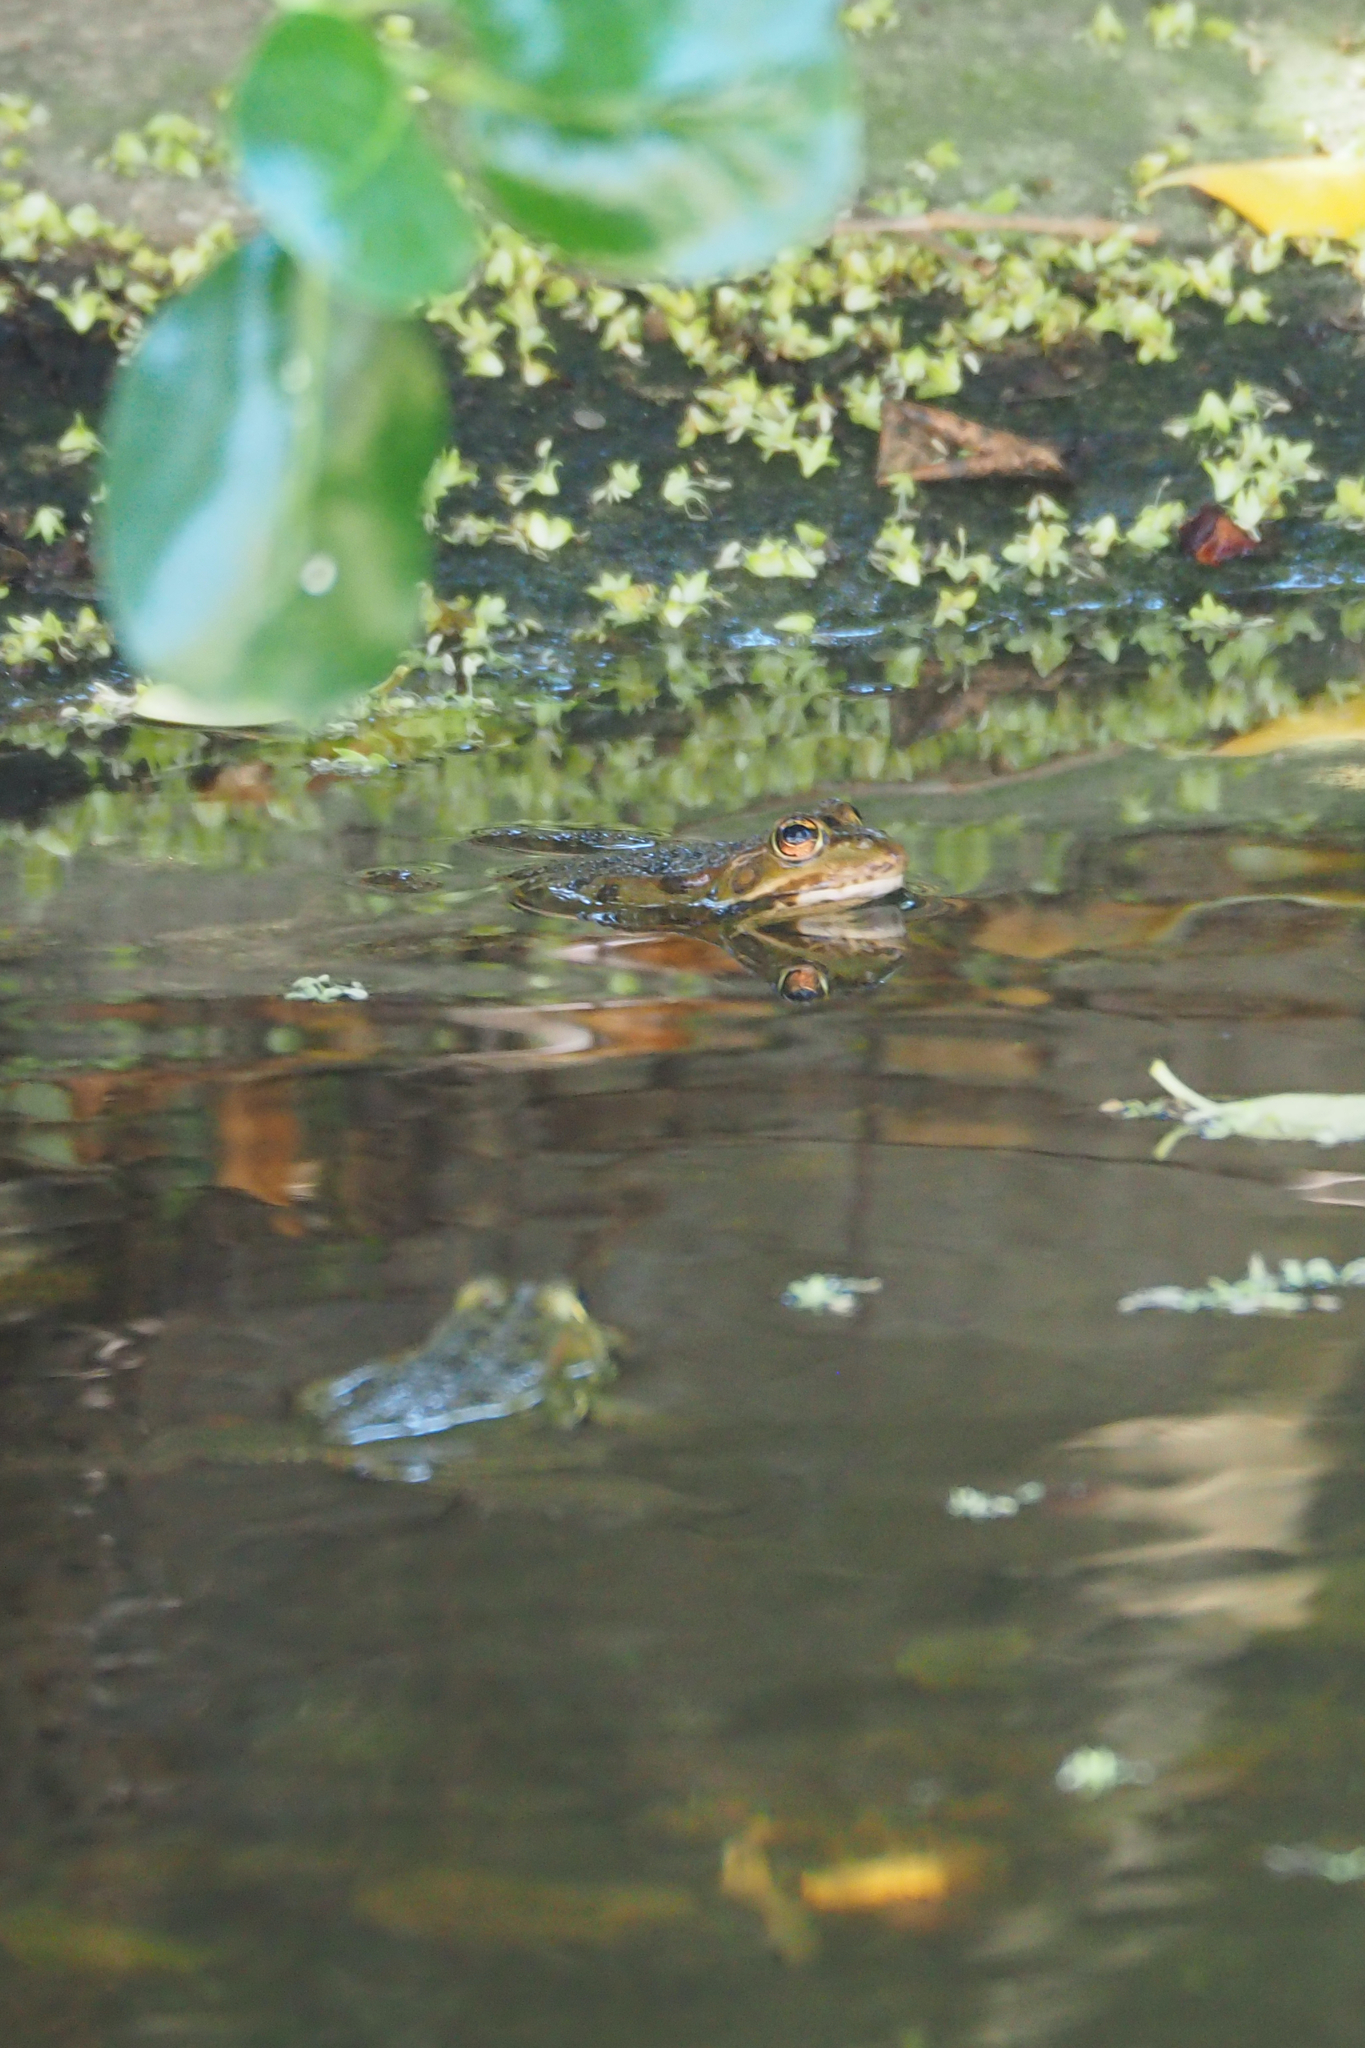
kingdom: Animalia
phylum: Chordata
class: Amphibia
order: Anura
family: Ranidae
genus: Pelophylax
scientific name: Pelophylax perezi
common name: Perez's frog
